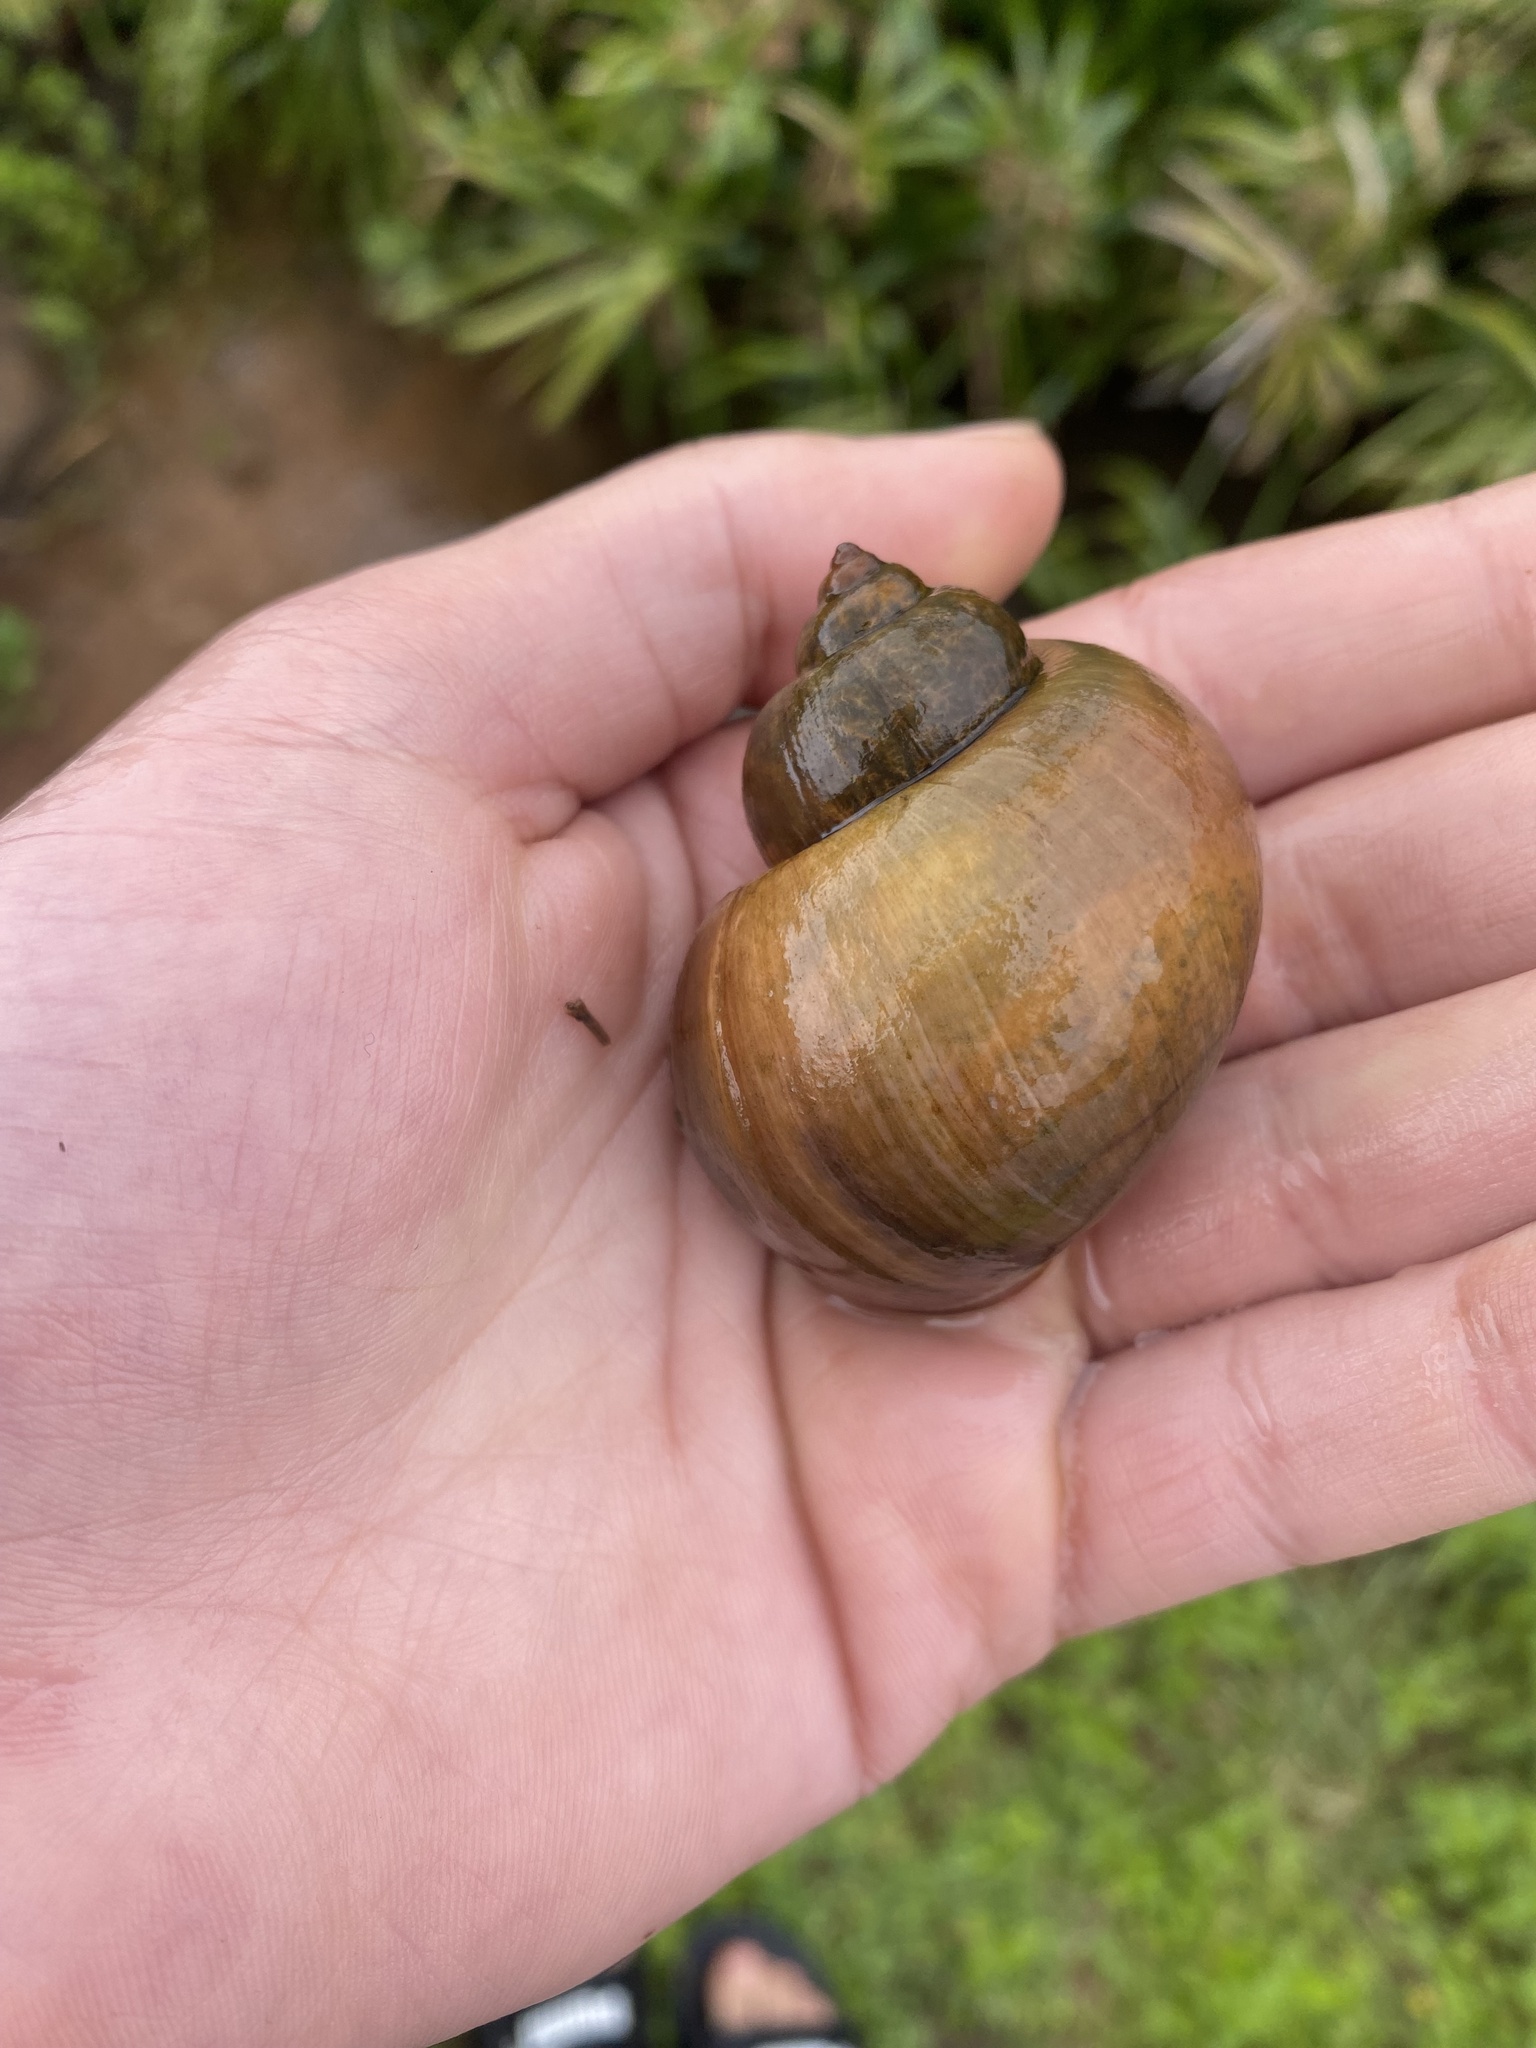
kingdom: Animalia
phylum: Mollusca
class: Gastropoda
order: Architaenioglossa
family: Ampullariidae
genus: Pomacea
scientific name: Pomacea canaliculata
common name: Channeled applesnail
